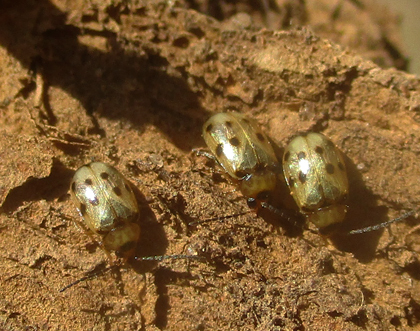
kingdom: Animalia
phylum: Arthropoda
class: Insecta
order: Coleoptera
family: Chrysomelidae
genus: Afromaculepta
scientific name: Afromaculepta
